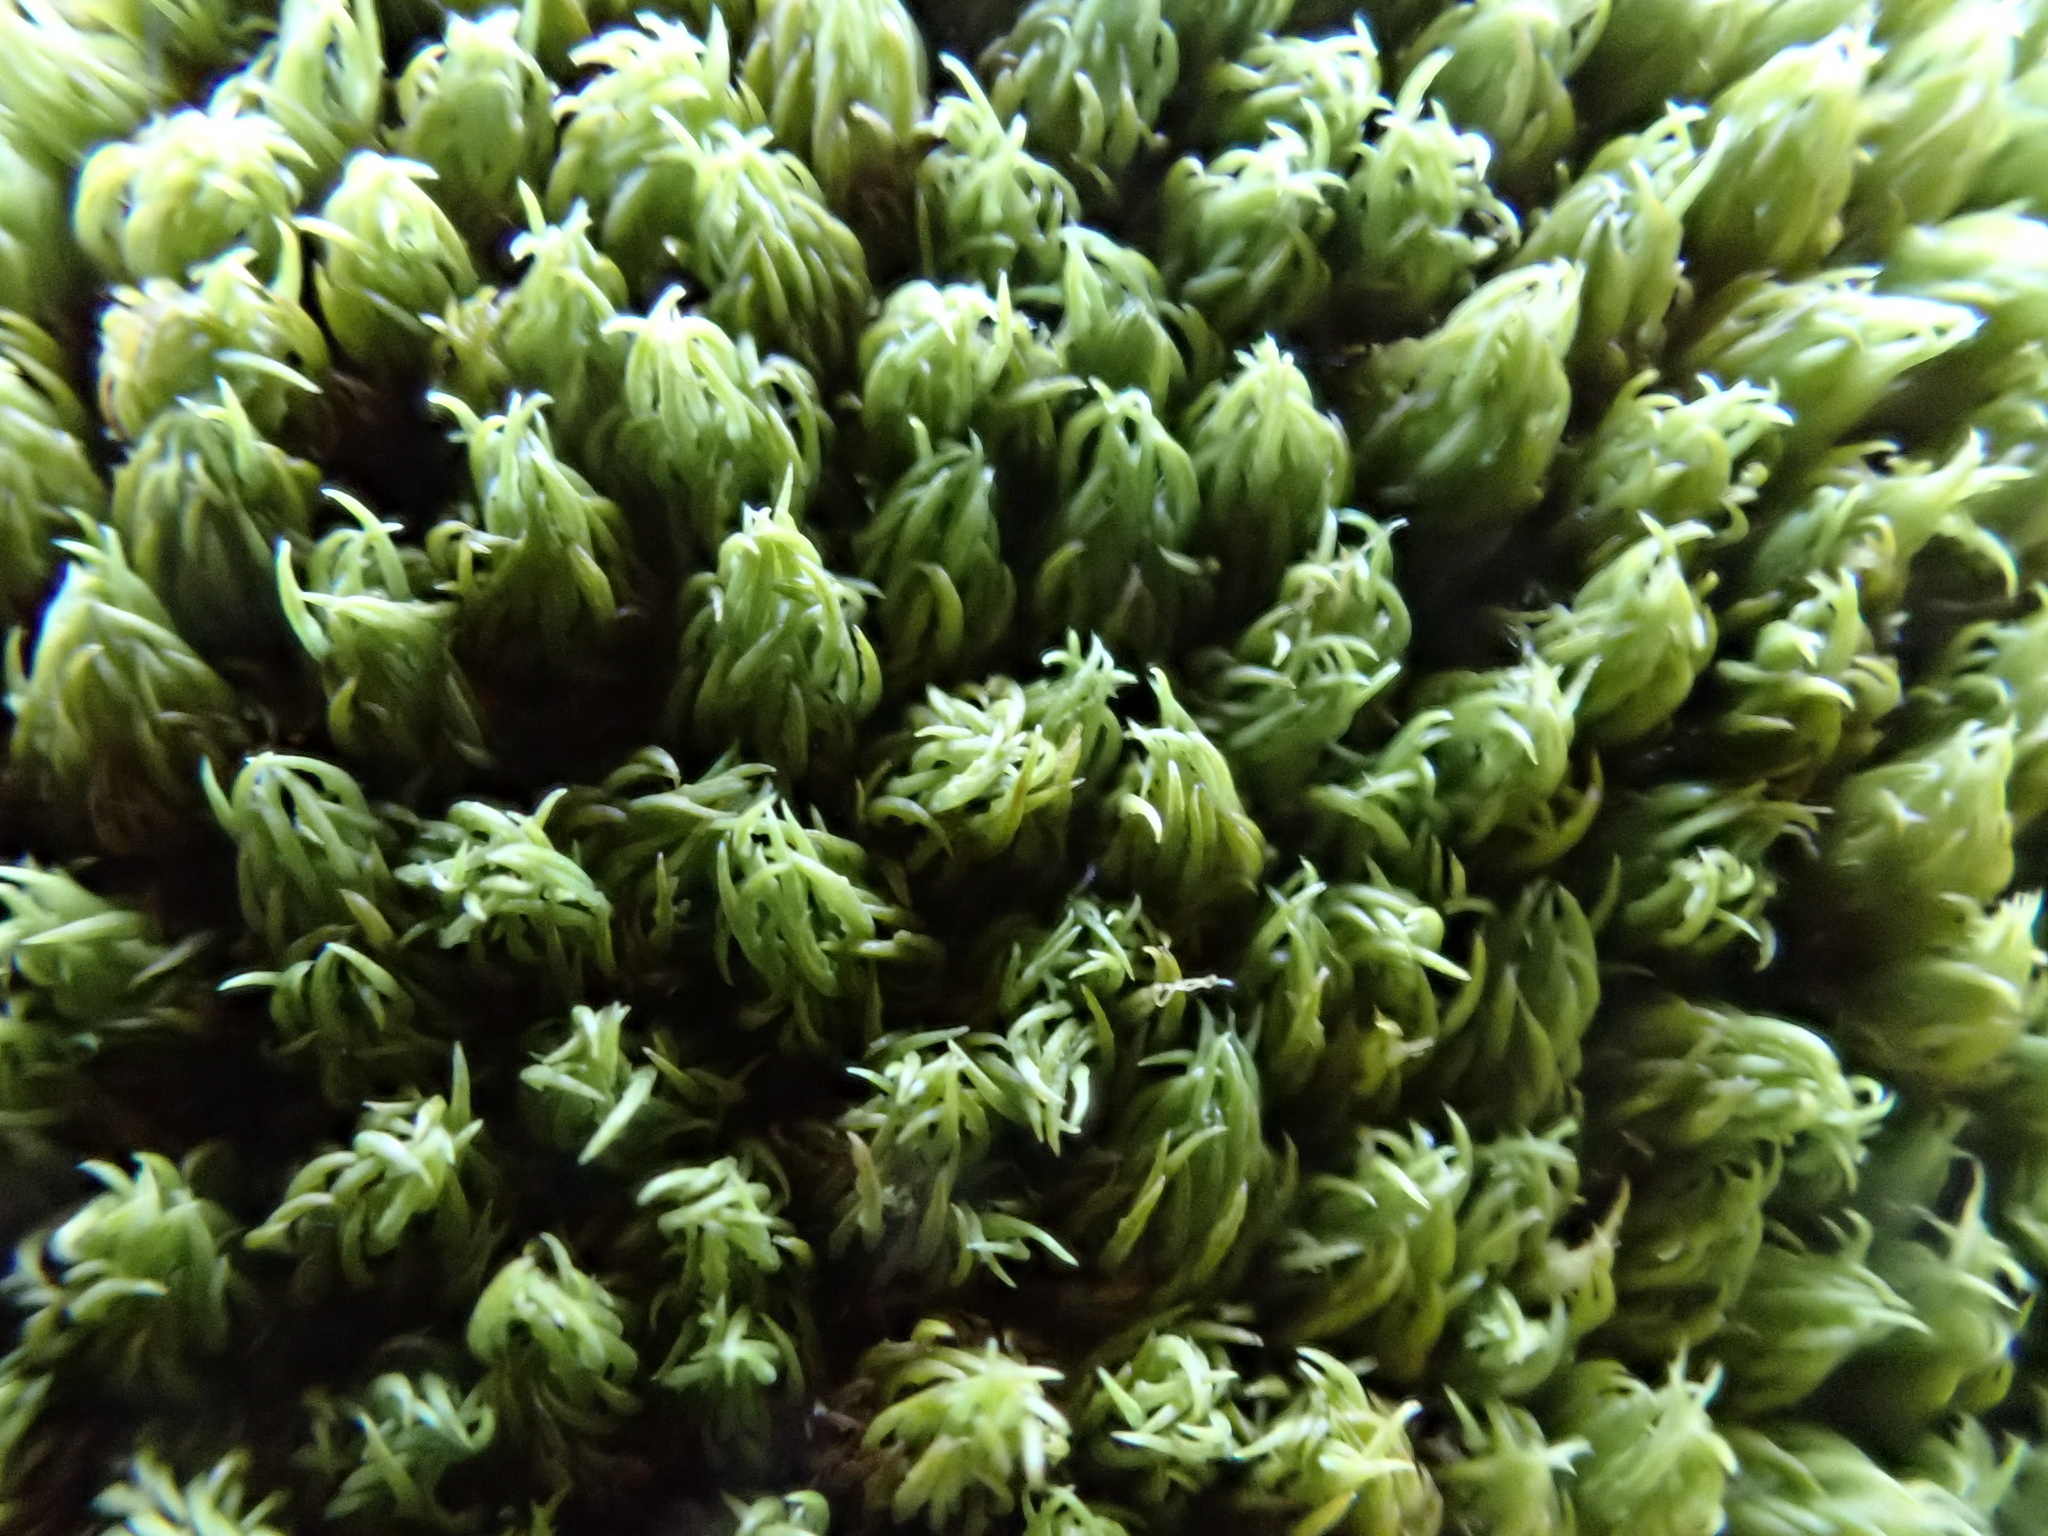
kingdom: Plantae
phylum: Bryophyta
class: Bryopsida
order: Dicranales
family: Hypodontiaceae
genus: Hypodontium
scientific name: Hypodontium pomiforme
